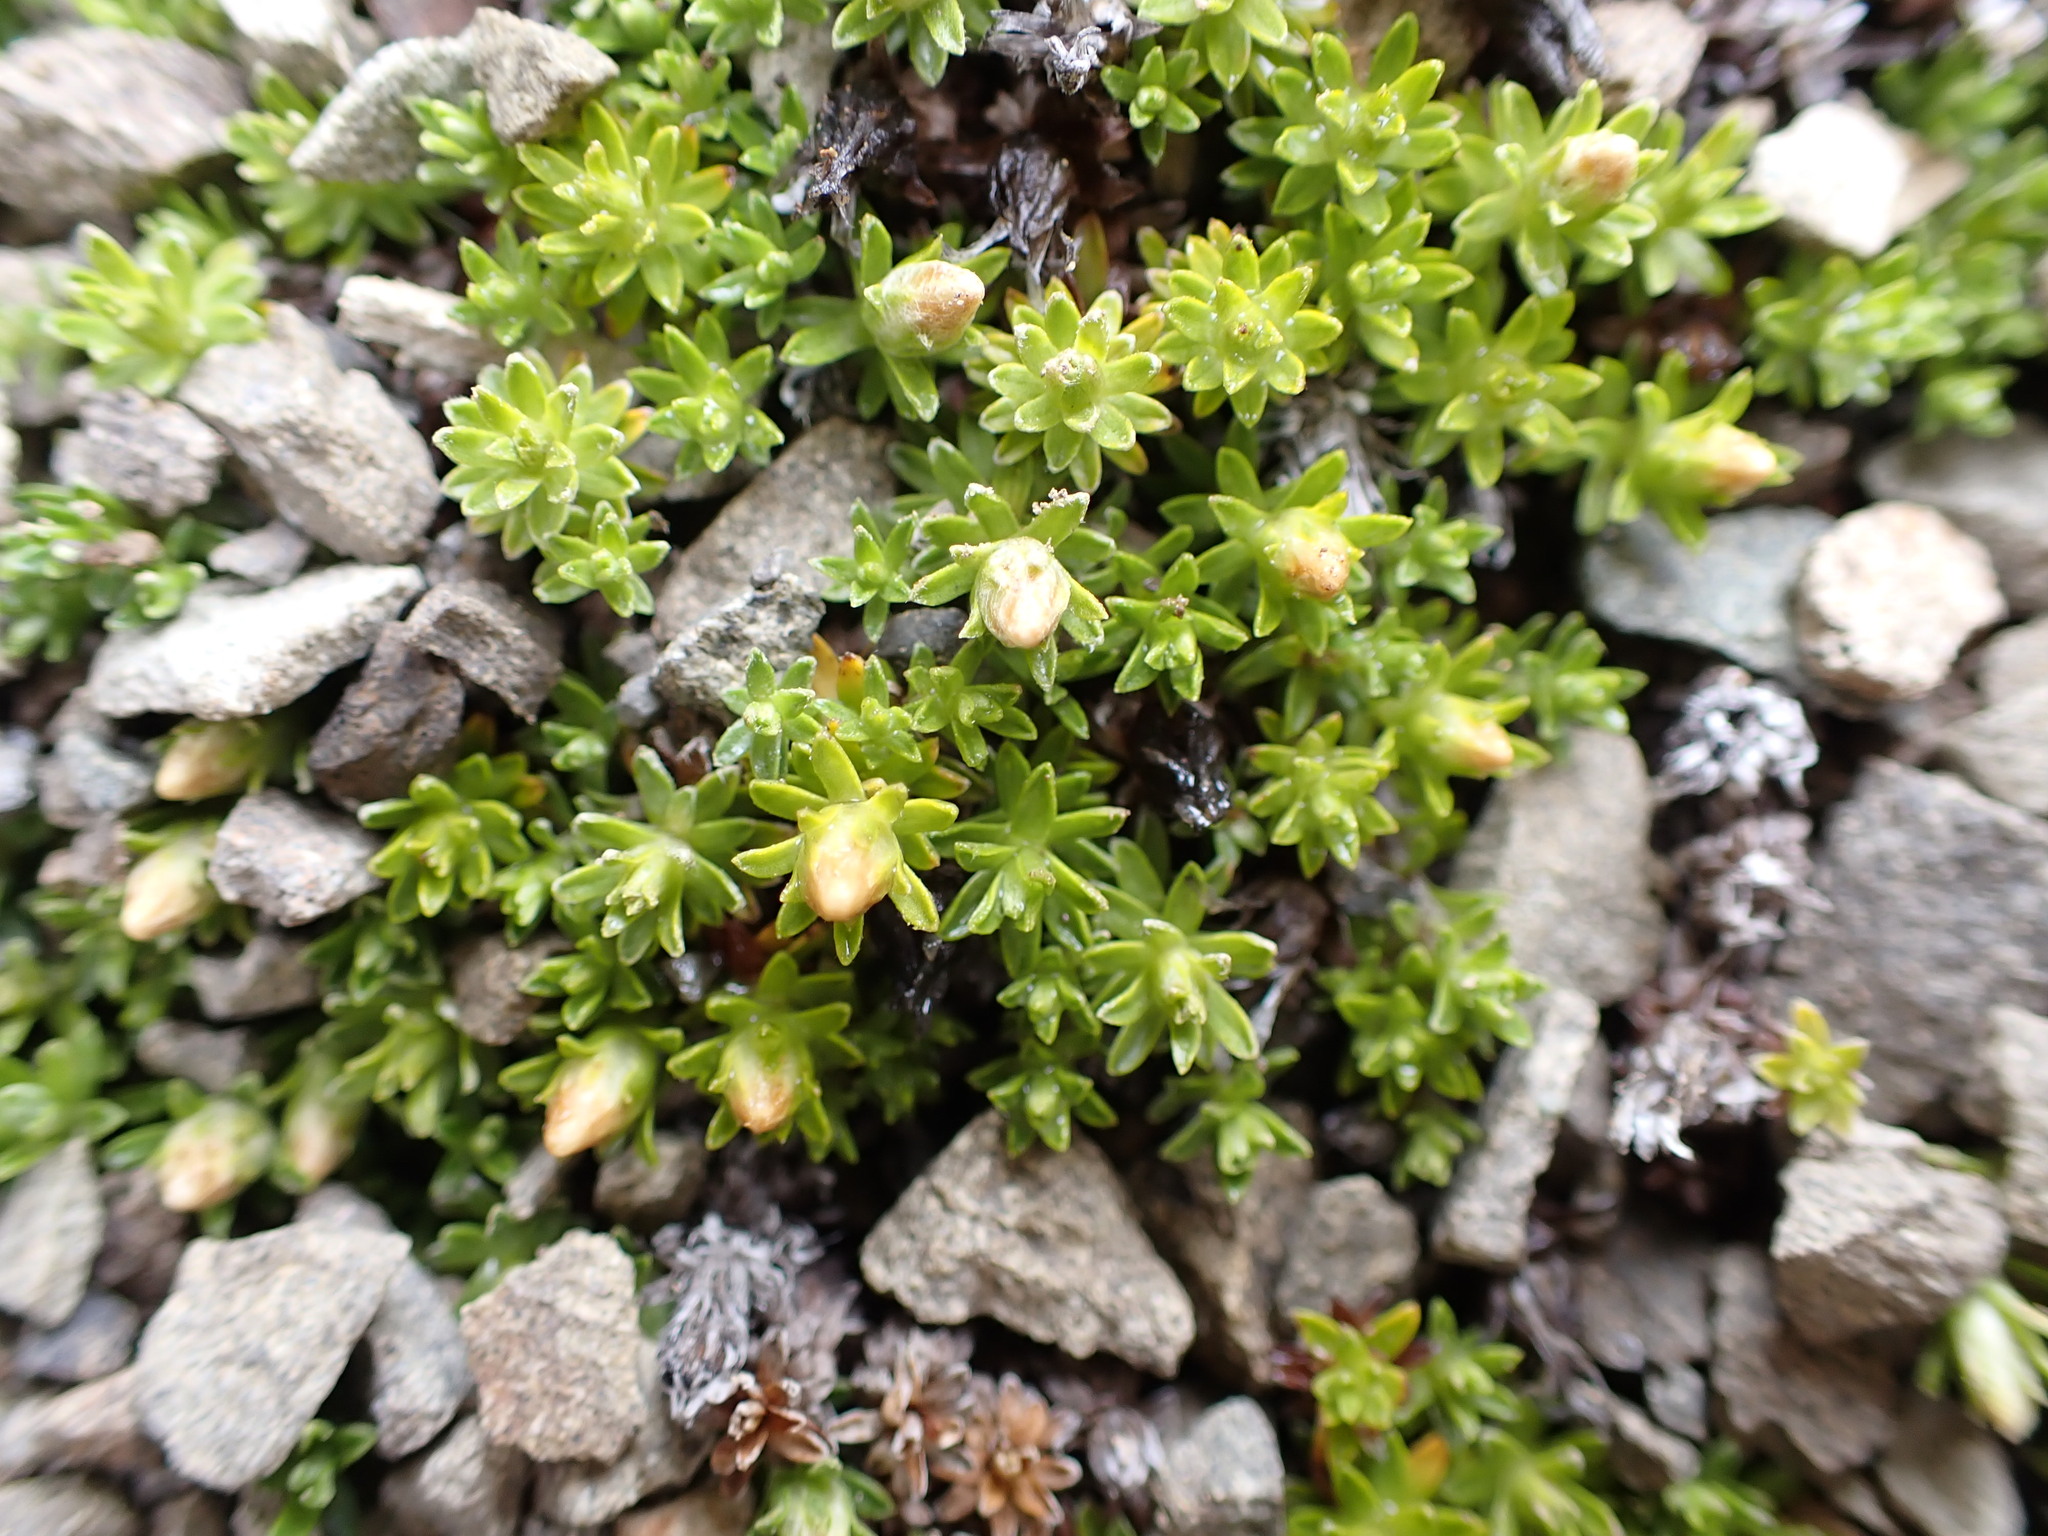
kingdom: Plantae
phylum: Tracheophyta
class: Magnoliopsida
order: Asterales
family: Asteraceae
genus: Raoulia
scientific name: Raoulia glabra
